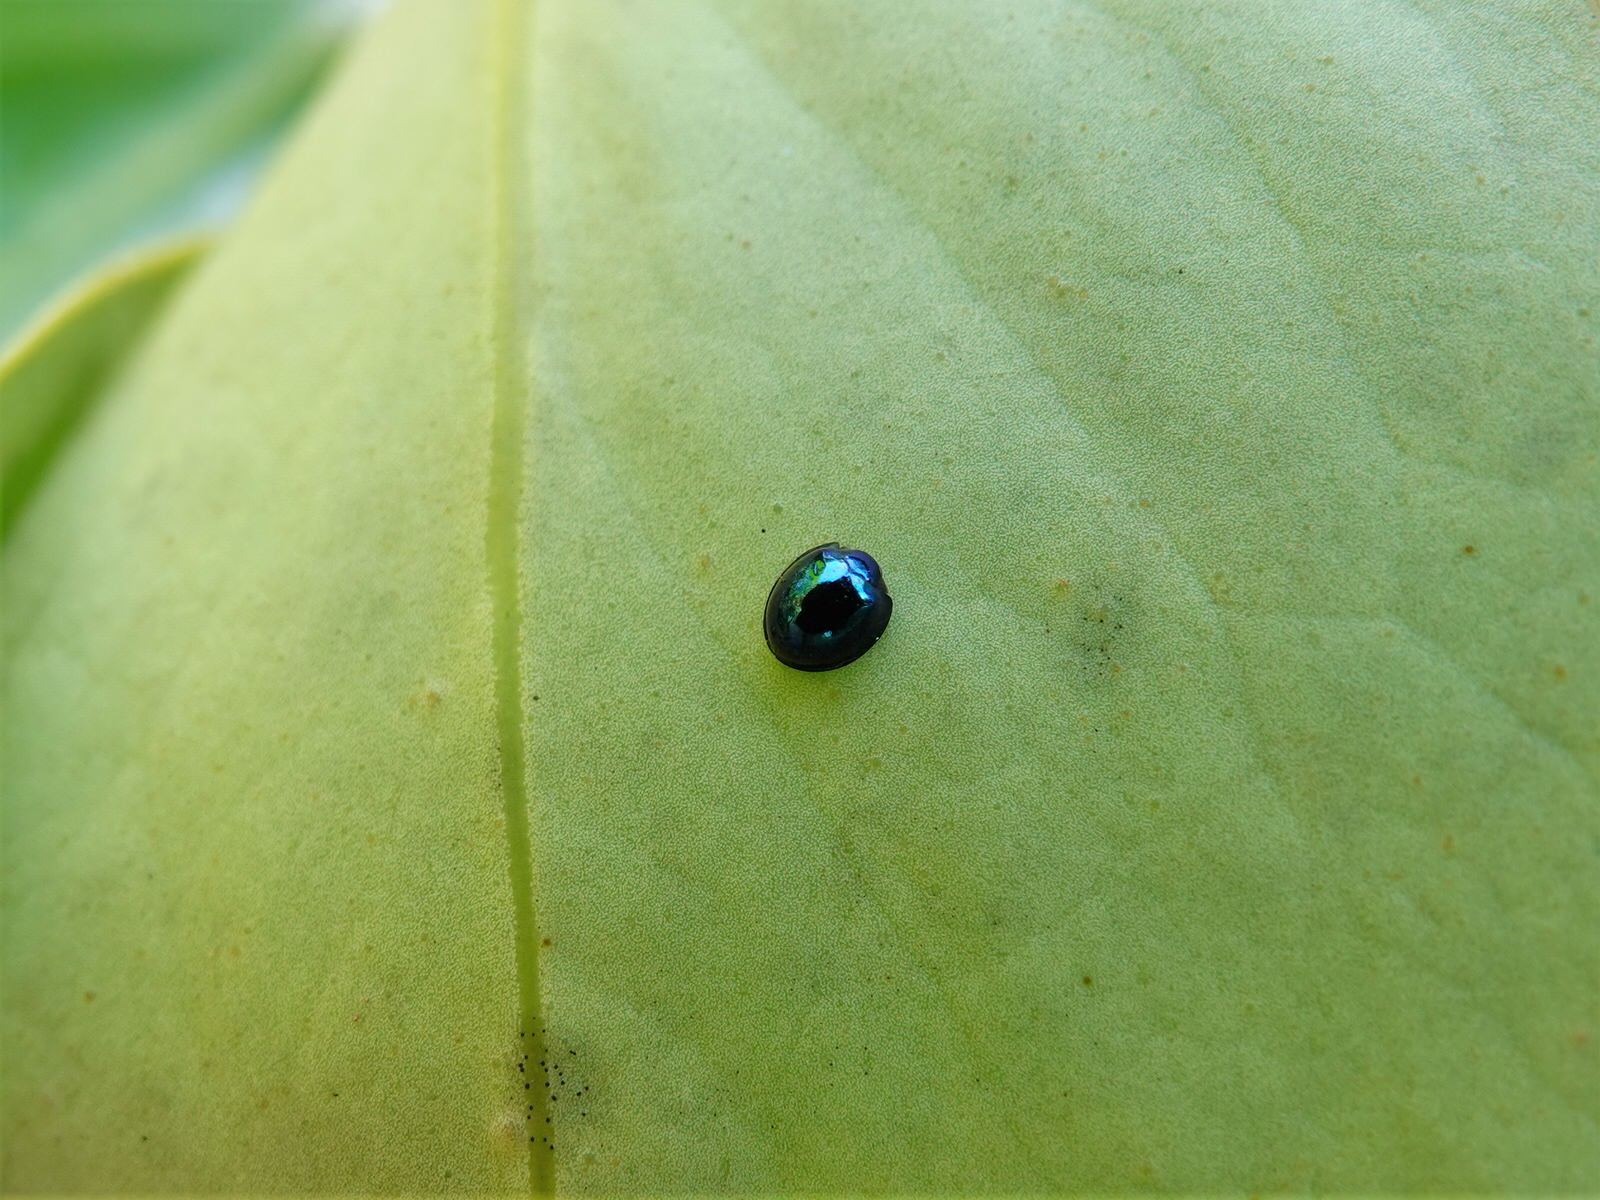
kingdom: Animalia
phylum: Arthropoda
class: Insecta
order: Coleoptera
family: Coccinellidae
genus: Halmus
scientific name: Halmus chalybeus
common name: Steel blue ladybird beetle
